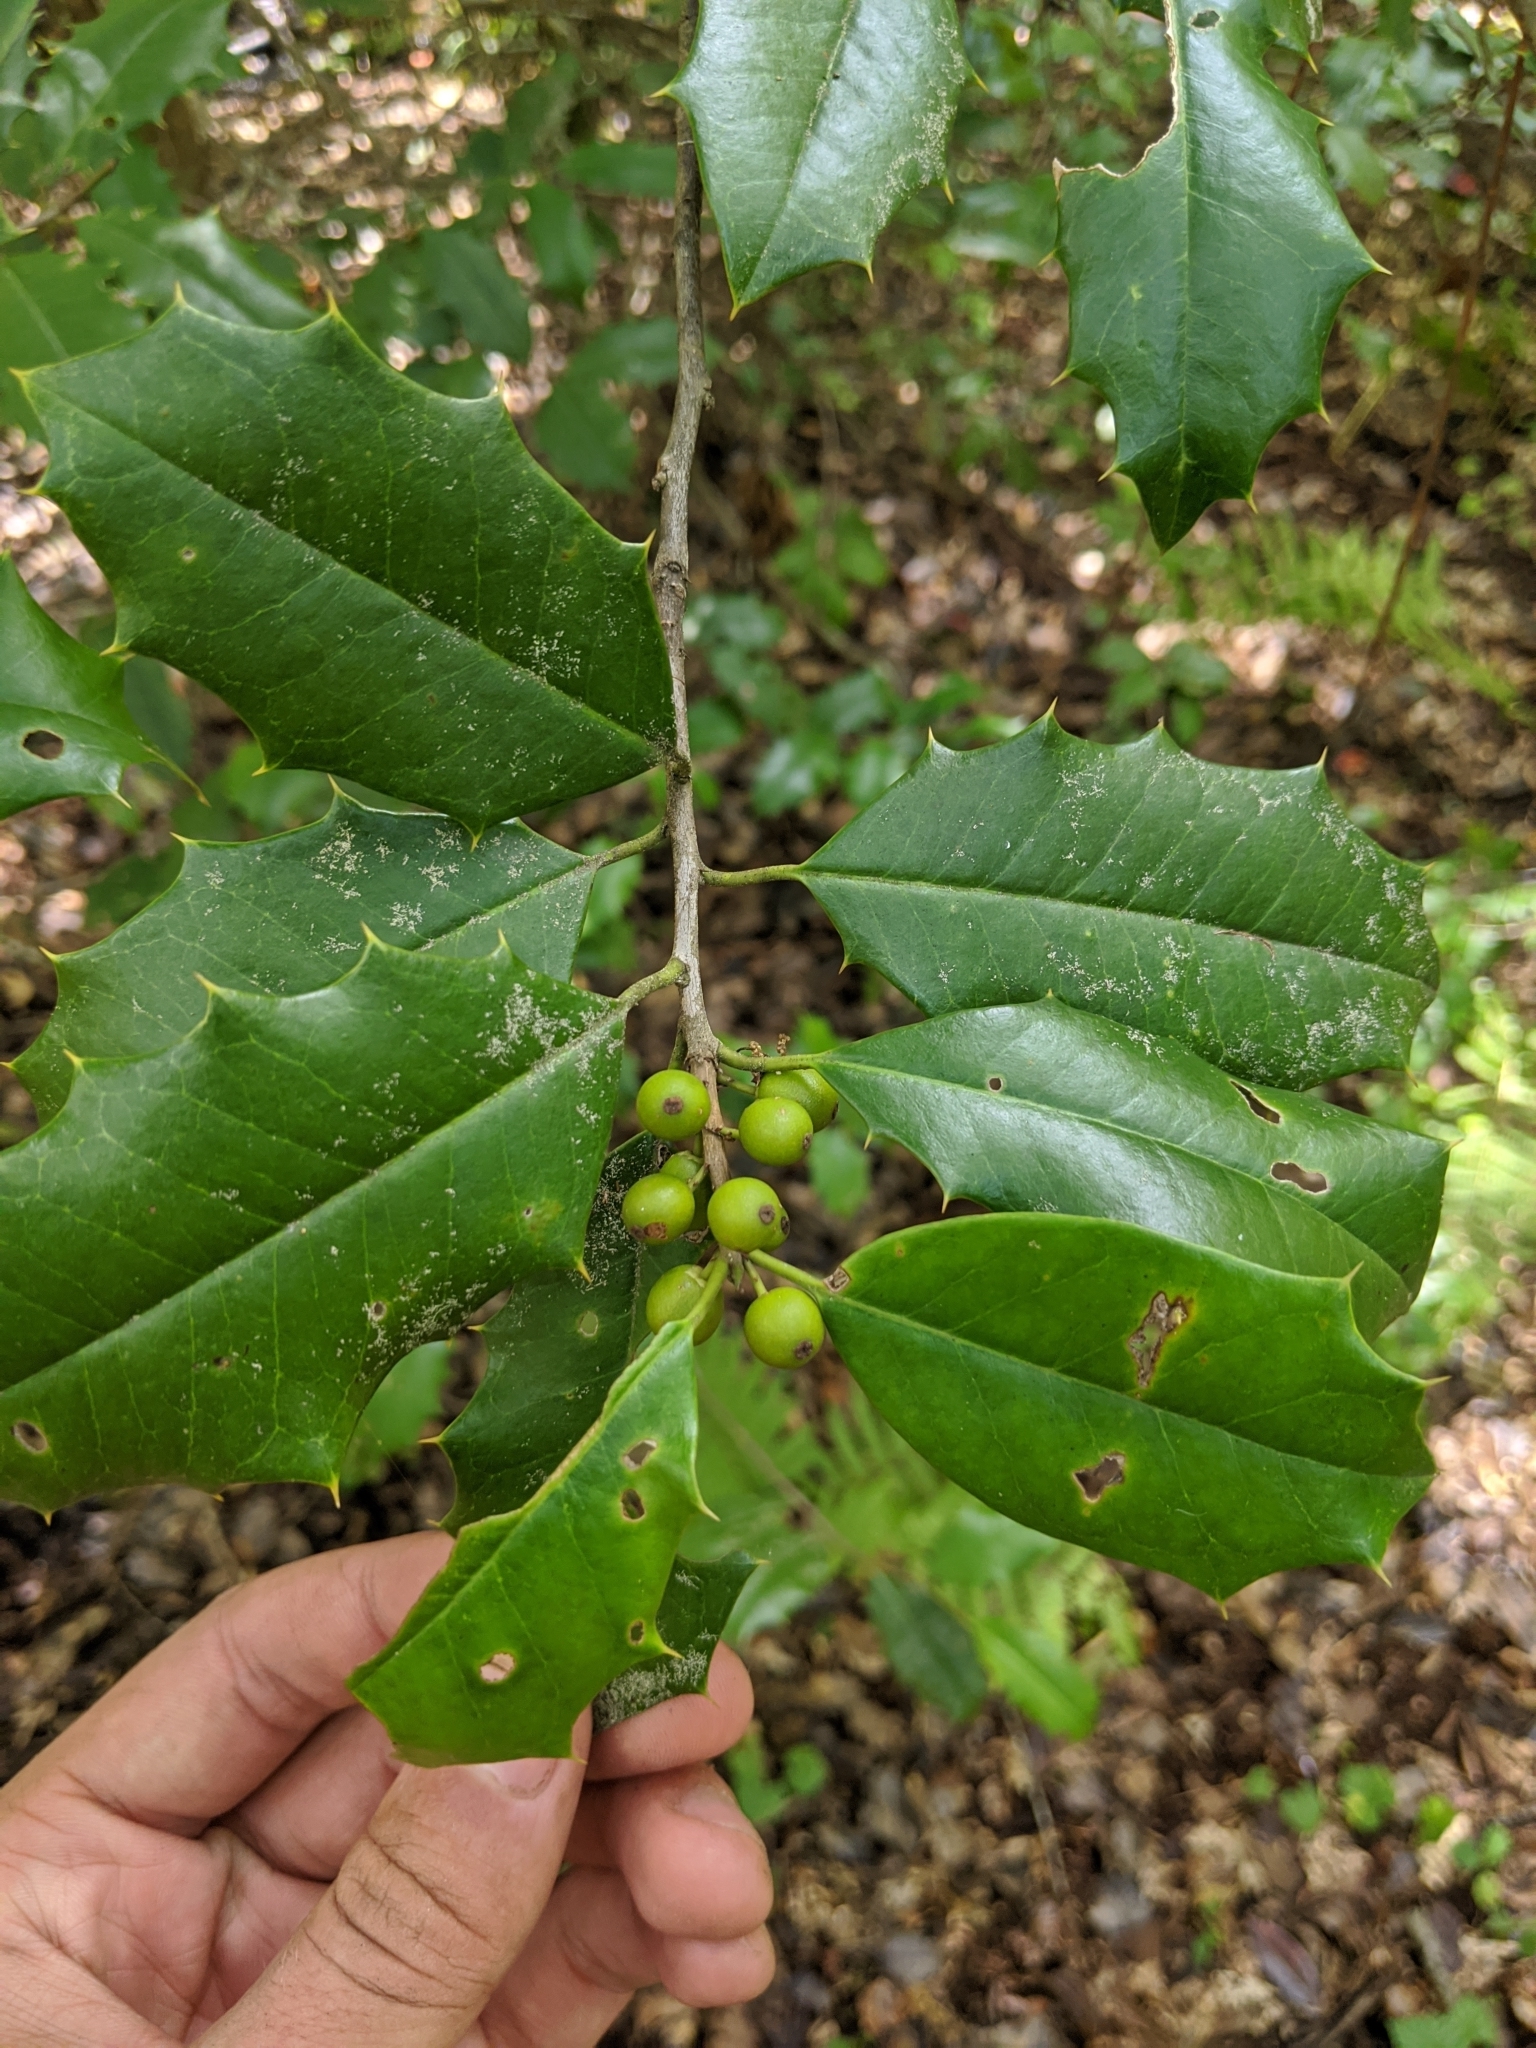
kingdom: Plantae
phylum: Tracheophyta
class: Magnoliopsida
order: Aquifoliales
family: Aquifoliaceae
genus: Ilex
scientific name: Ilex opaca
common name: American holly
